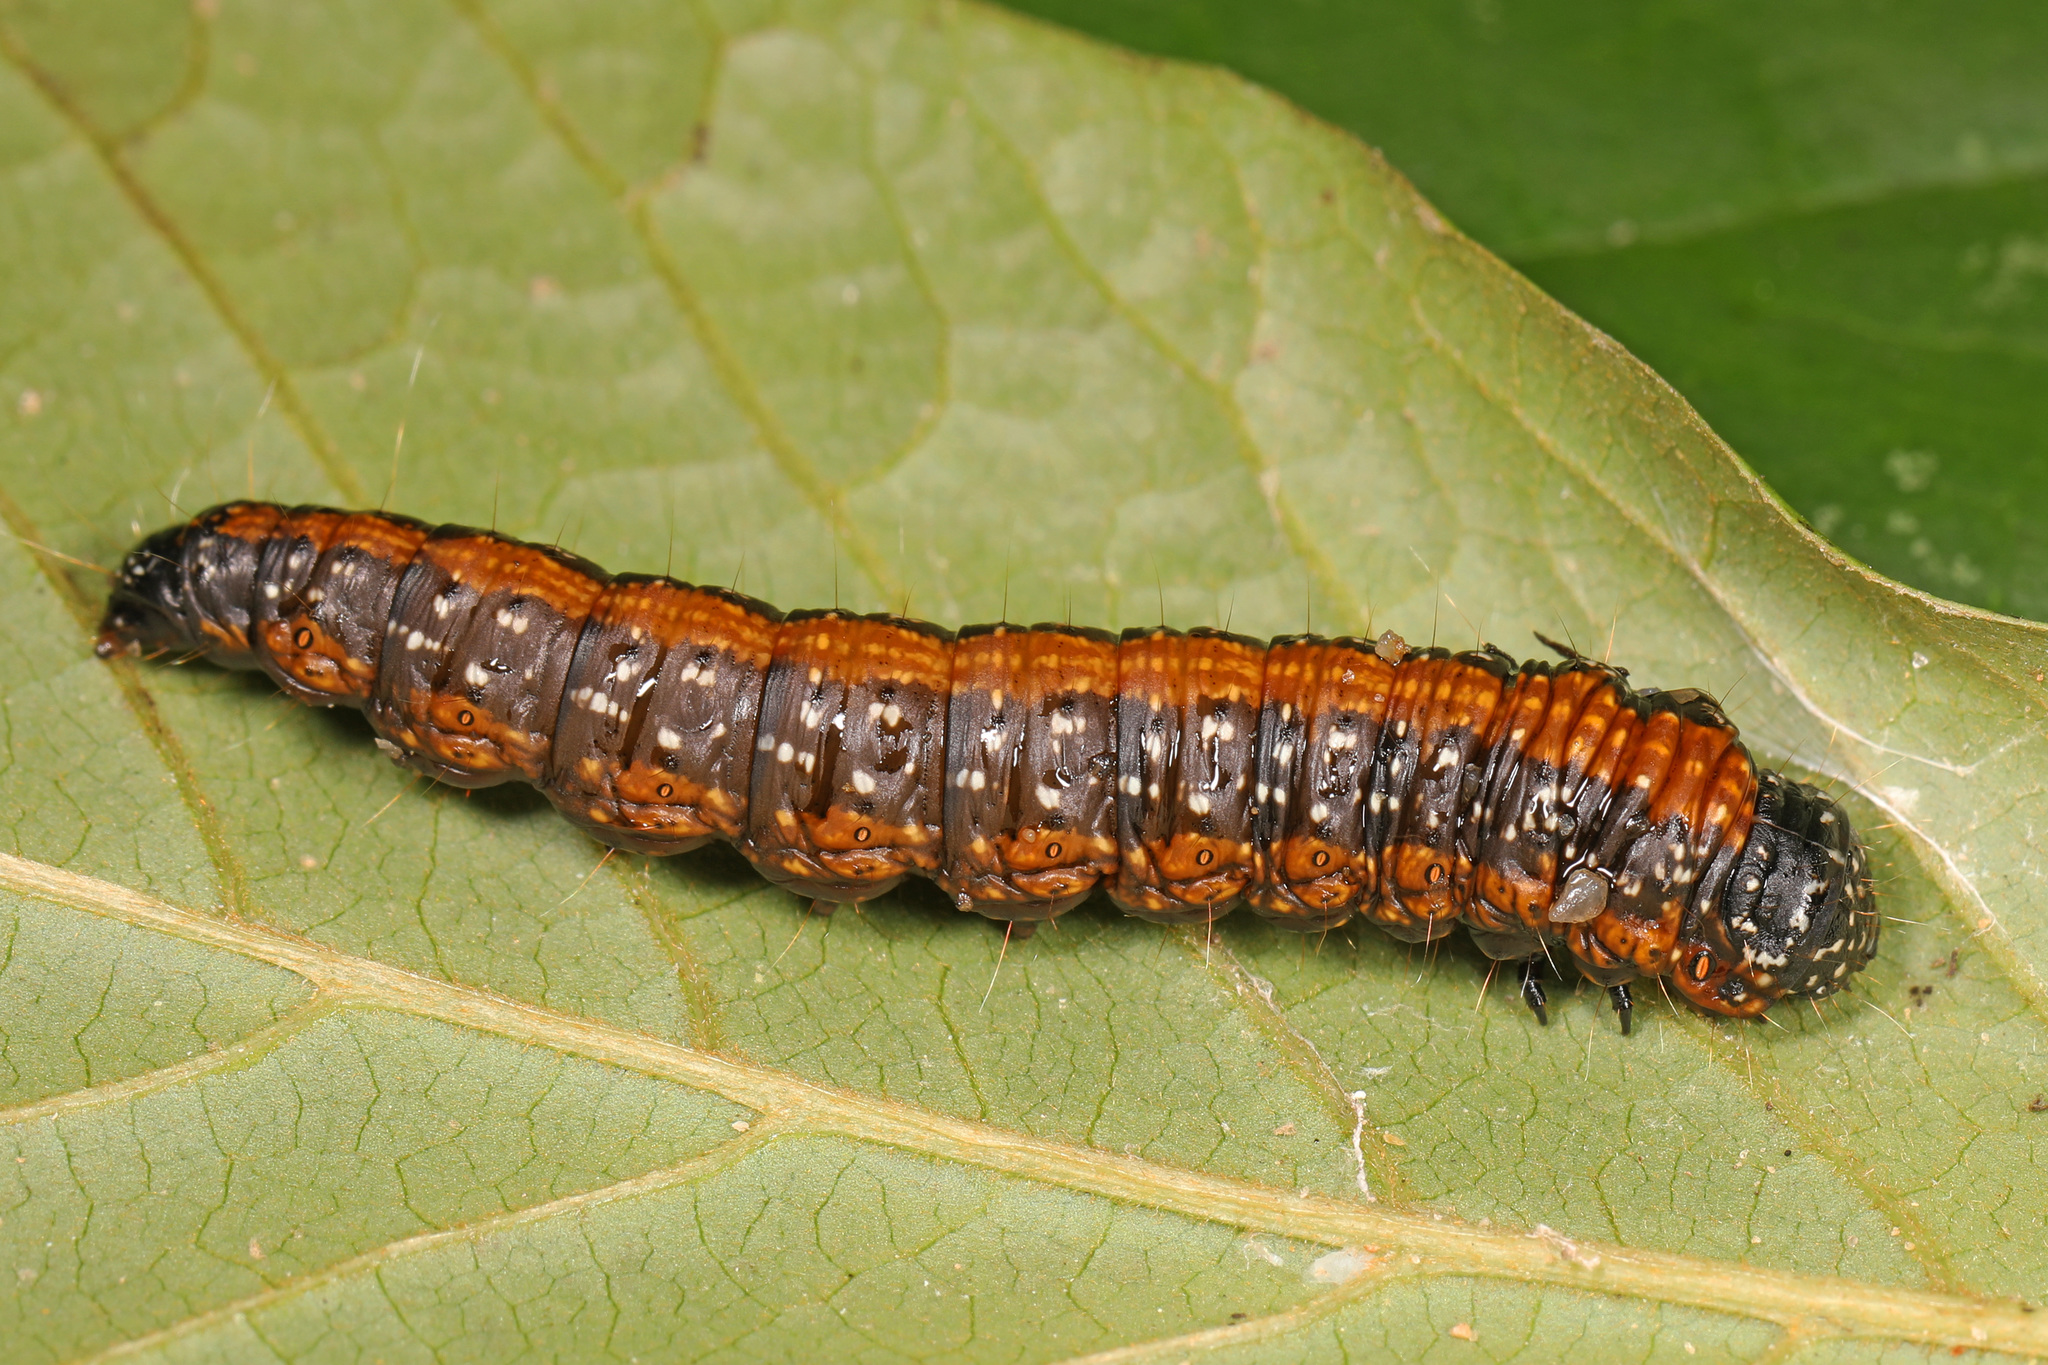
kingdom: Animalia
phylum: Arthropoda
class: Insecta
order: Lepidoptera
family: Pyralidae
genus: Omphalocera
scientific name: Omphalocera munroei
